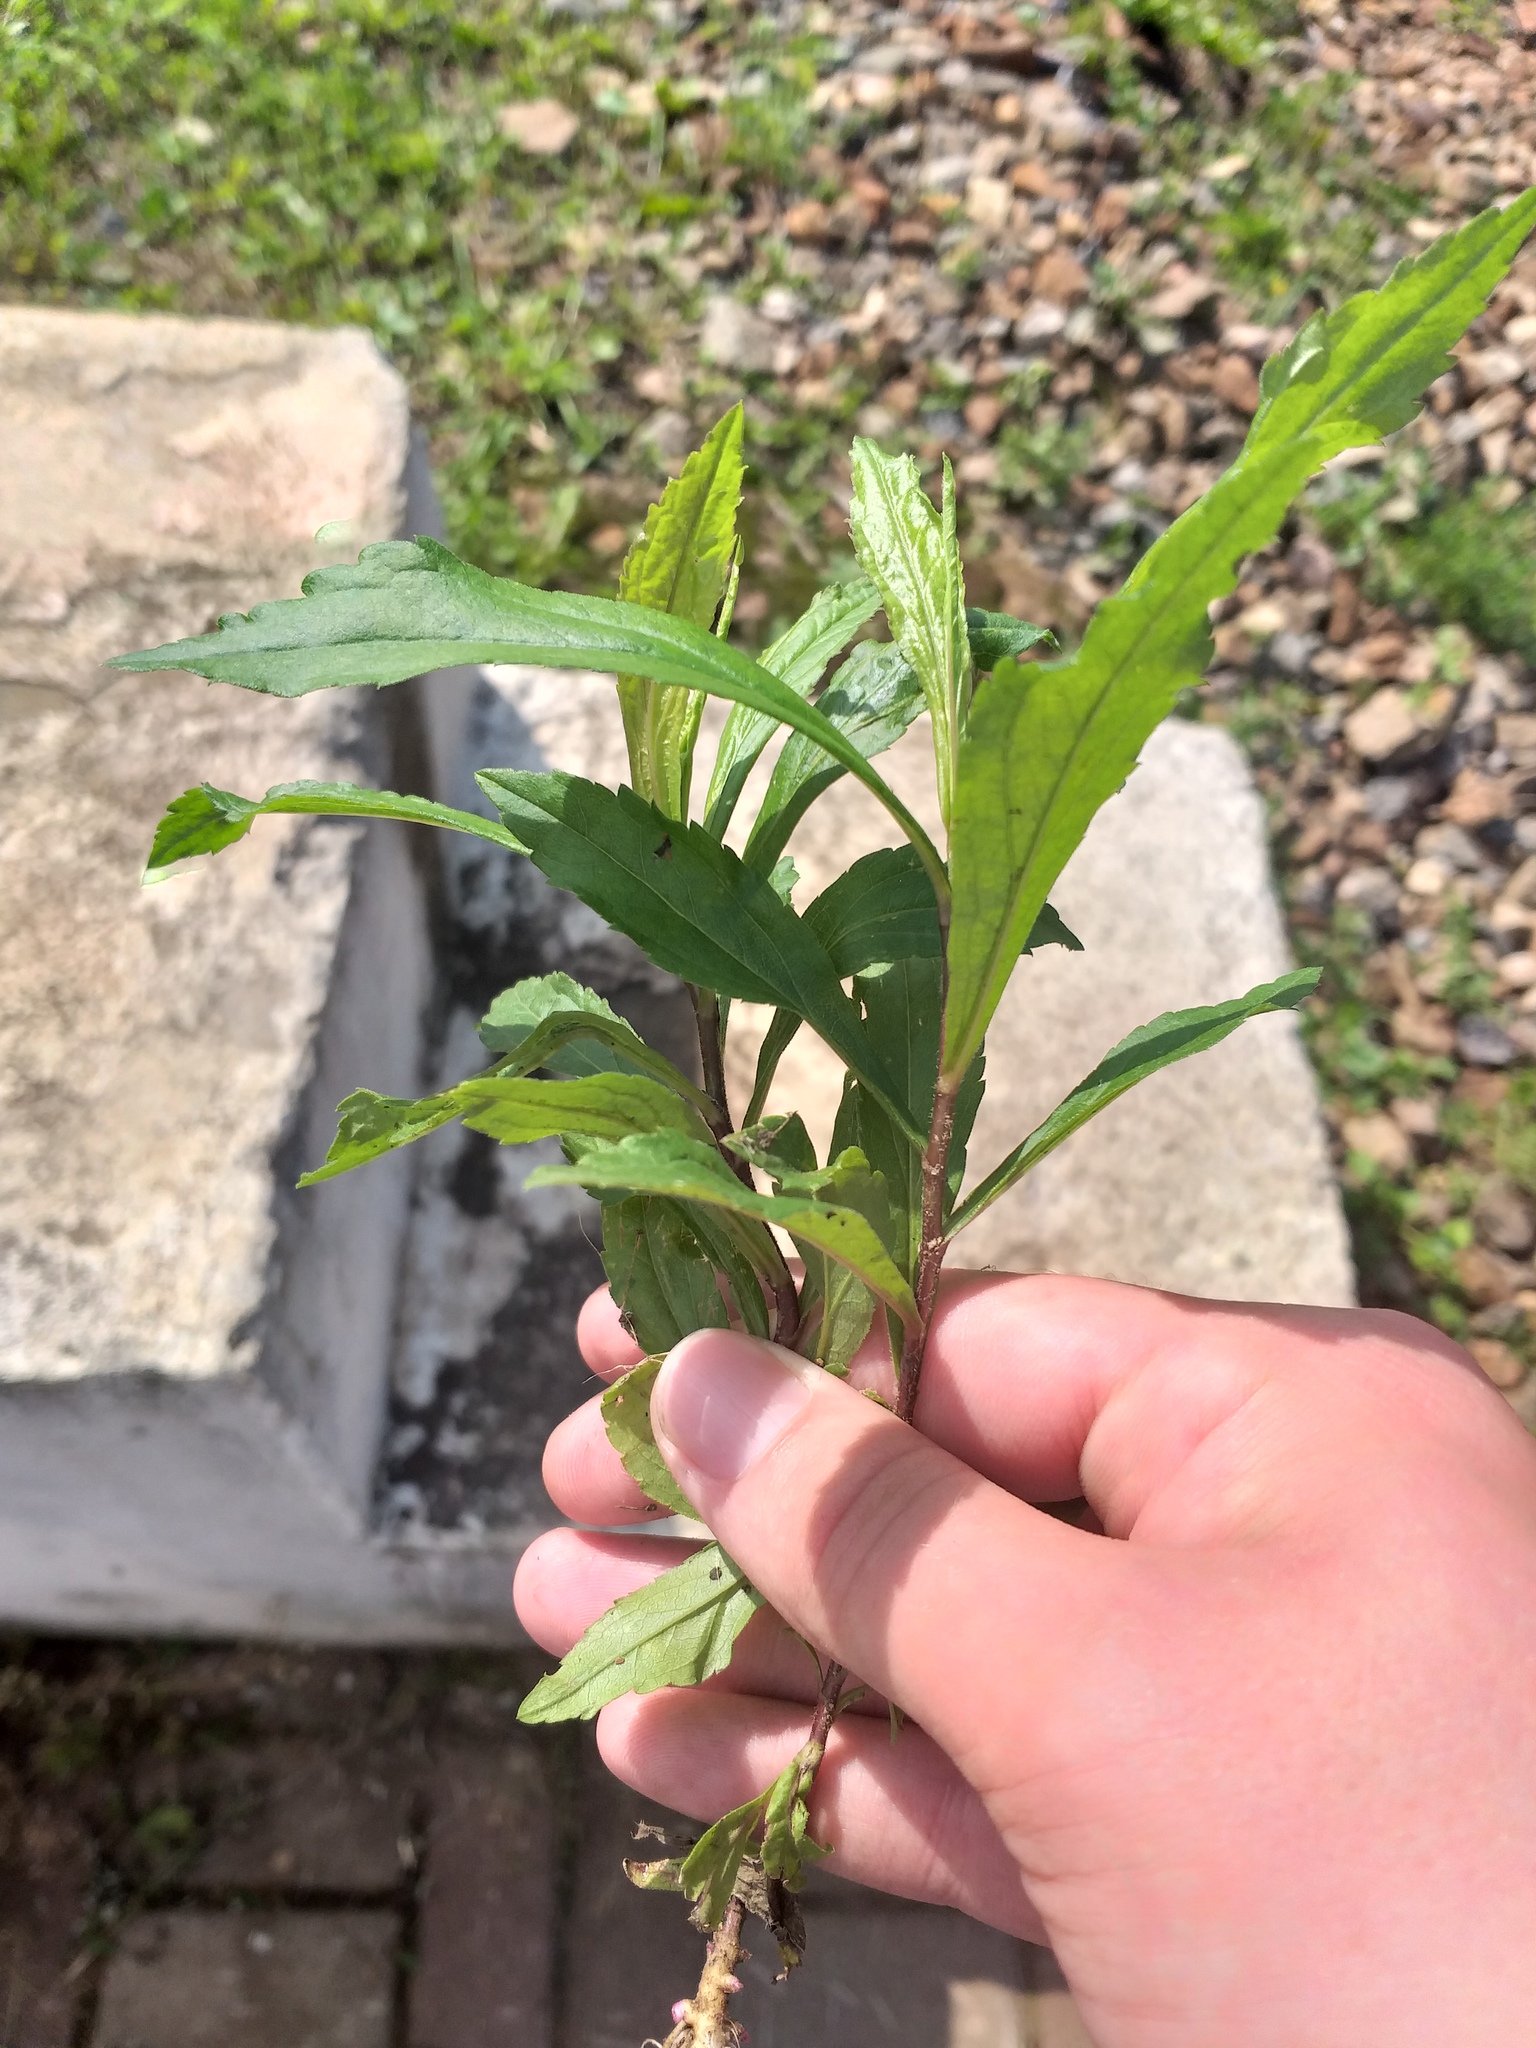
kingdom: Plantae
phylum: Tracheophyta
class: Magnoliopsida
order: Asterales
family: Asteraceae
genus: Solidago
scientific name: Solidago gigantea
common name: Giant goldenrod
